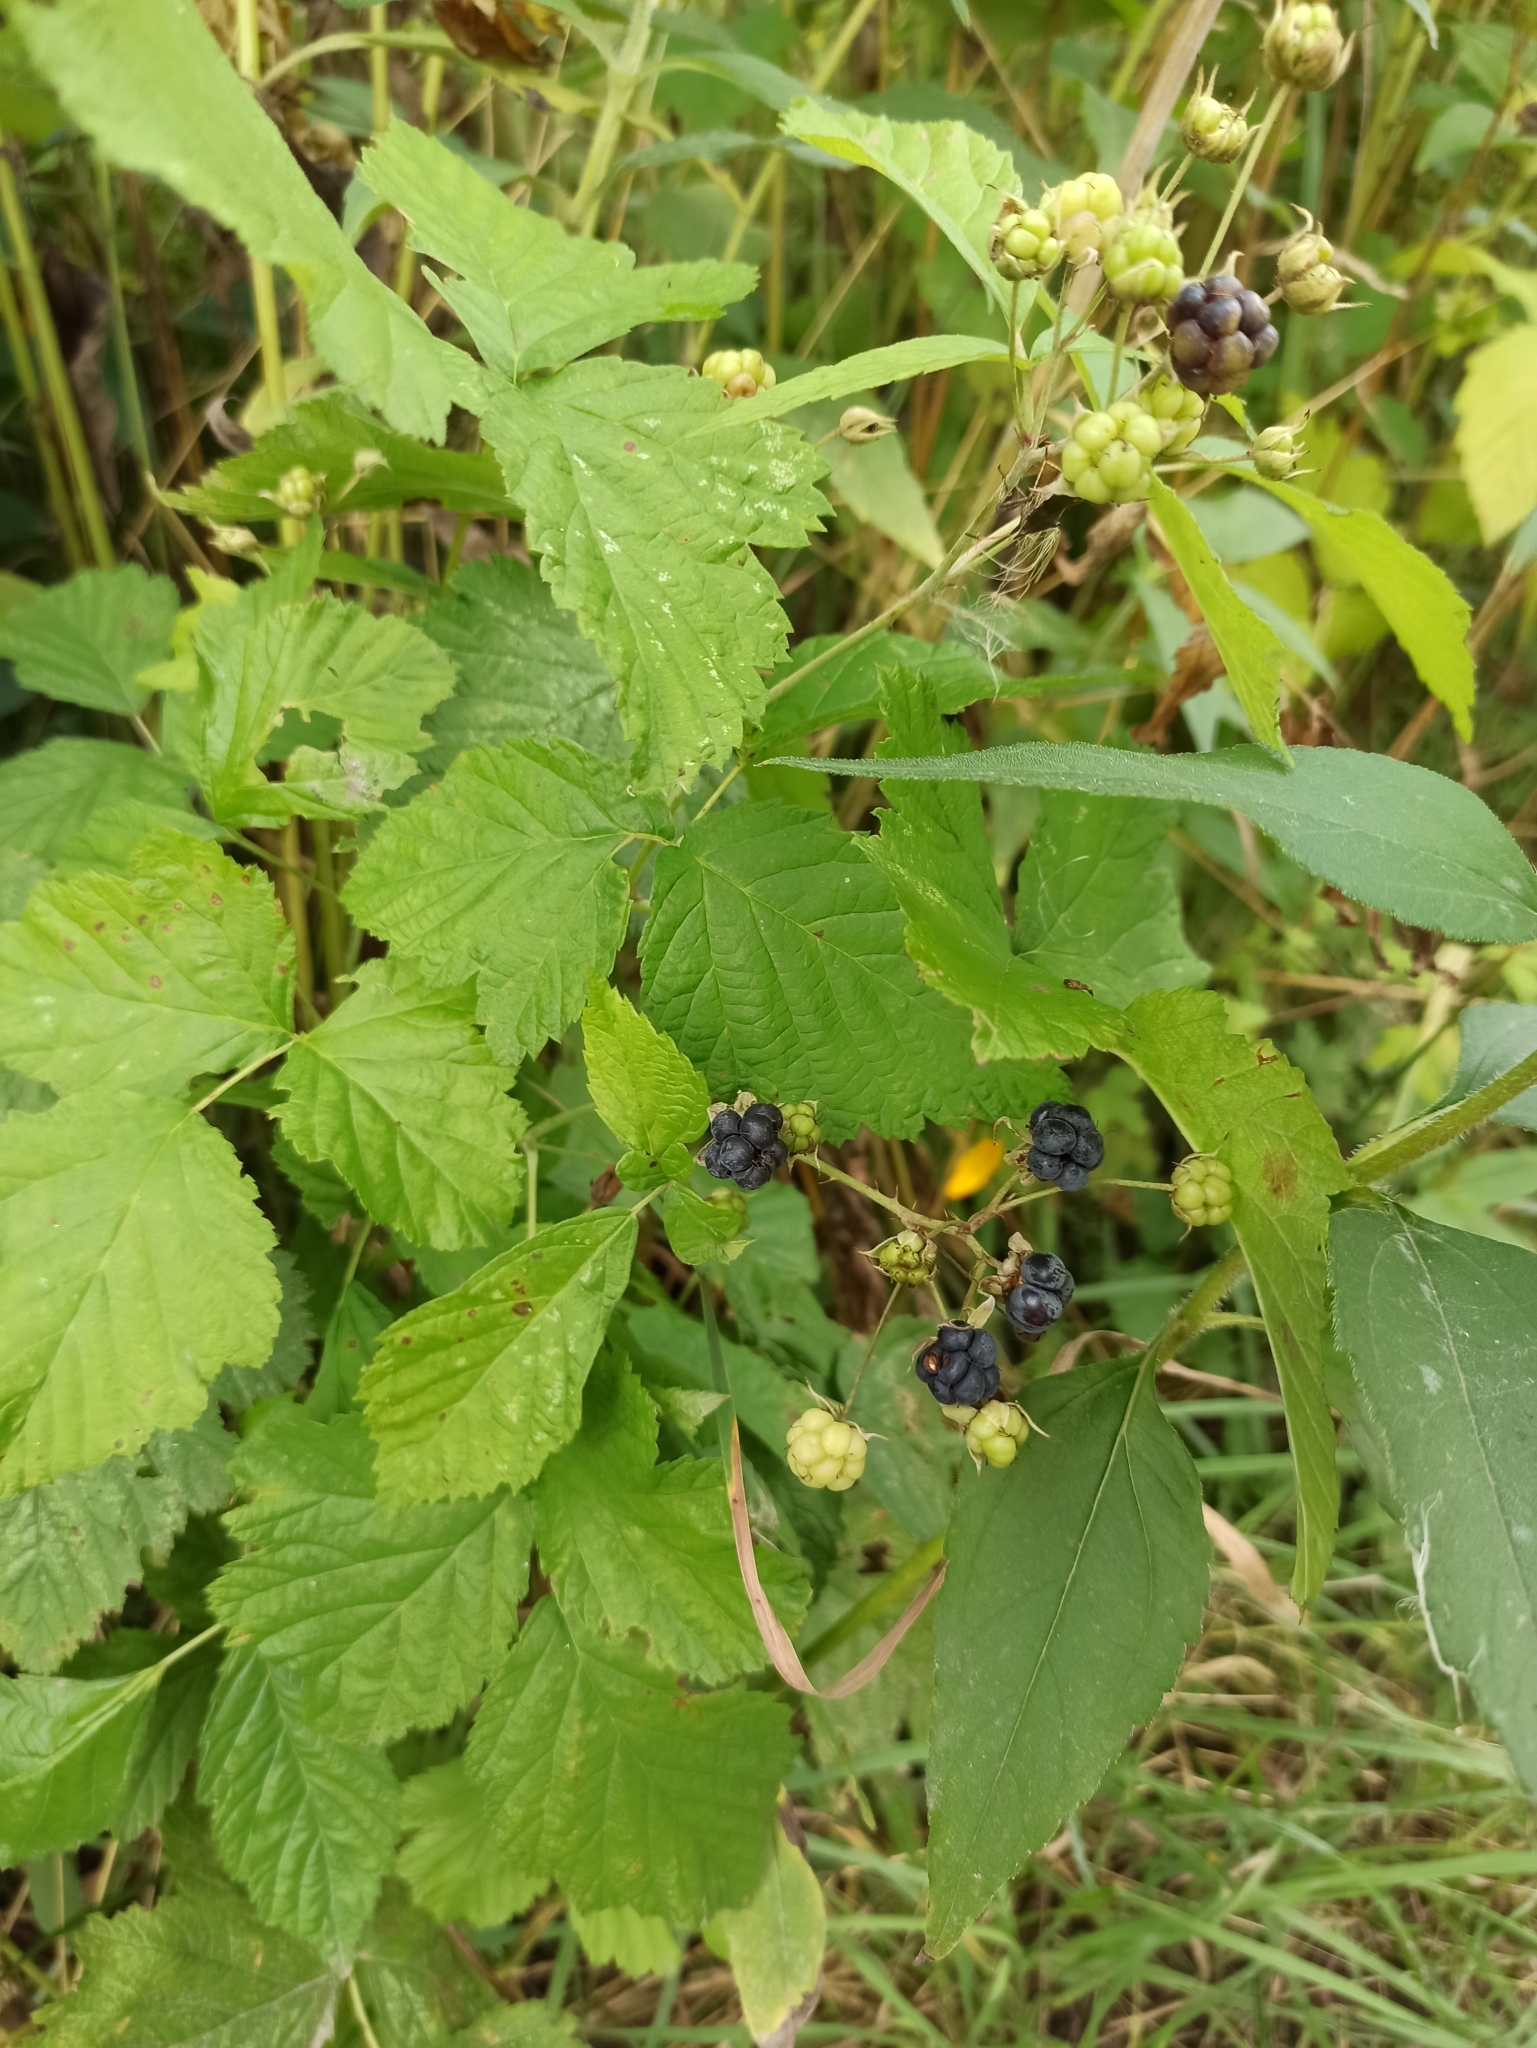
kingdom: Plantae
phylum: Tracheophyta
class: Magnoliopsida
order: Rosales
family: Rosaceae
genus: Rubus
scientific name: Rubus caesius
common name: Dewberry
